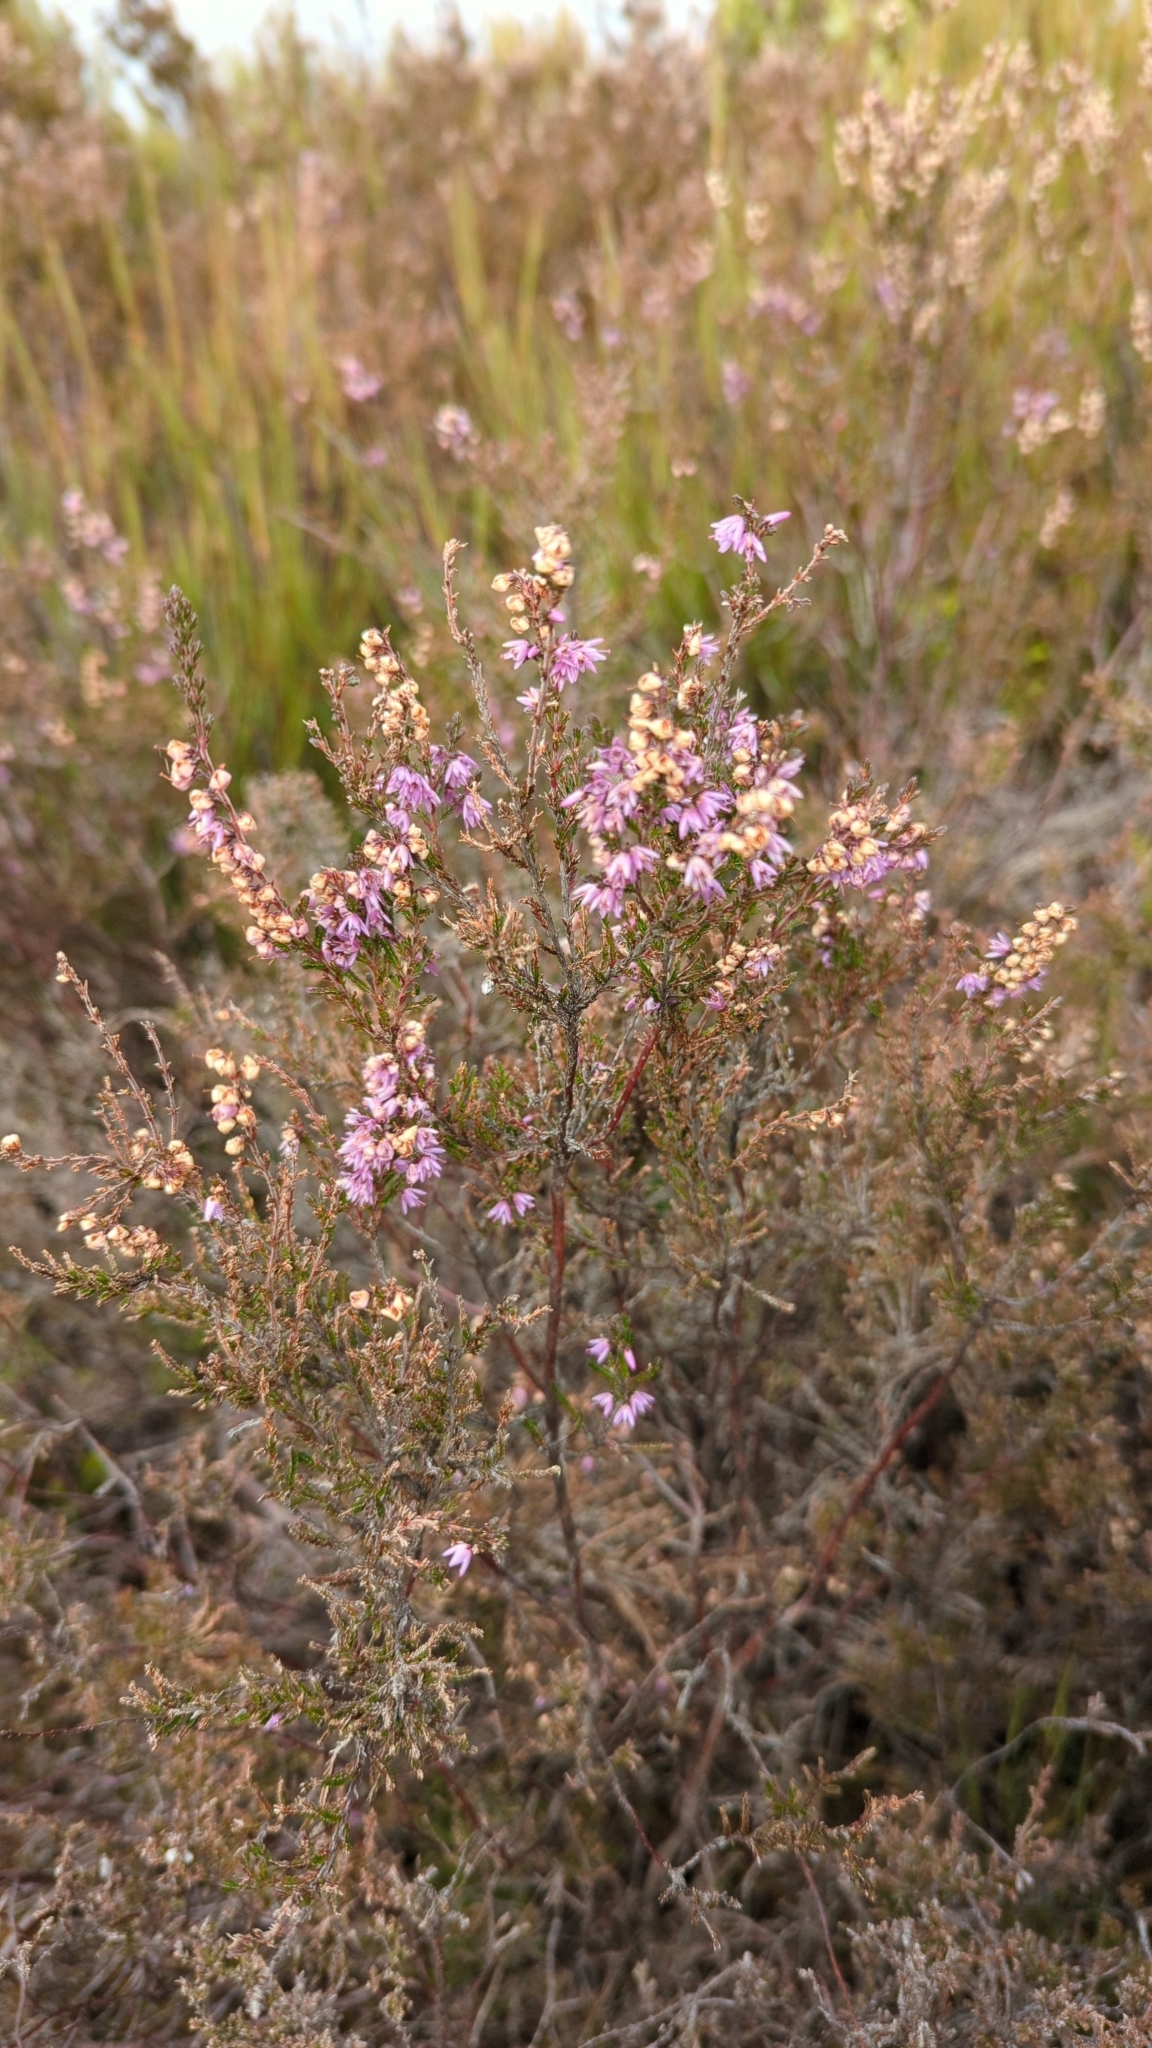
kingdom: Plantae
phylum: Tracheophyta
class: Magnoliopsida
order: Ericales
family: Ericaceae
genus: Calluna
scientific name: Calluna vulgaris
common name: Heather
